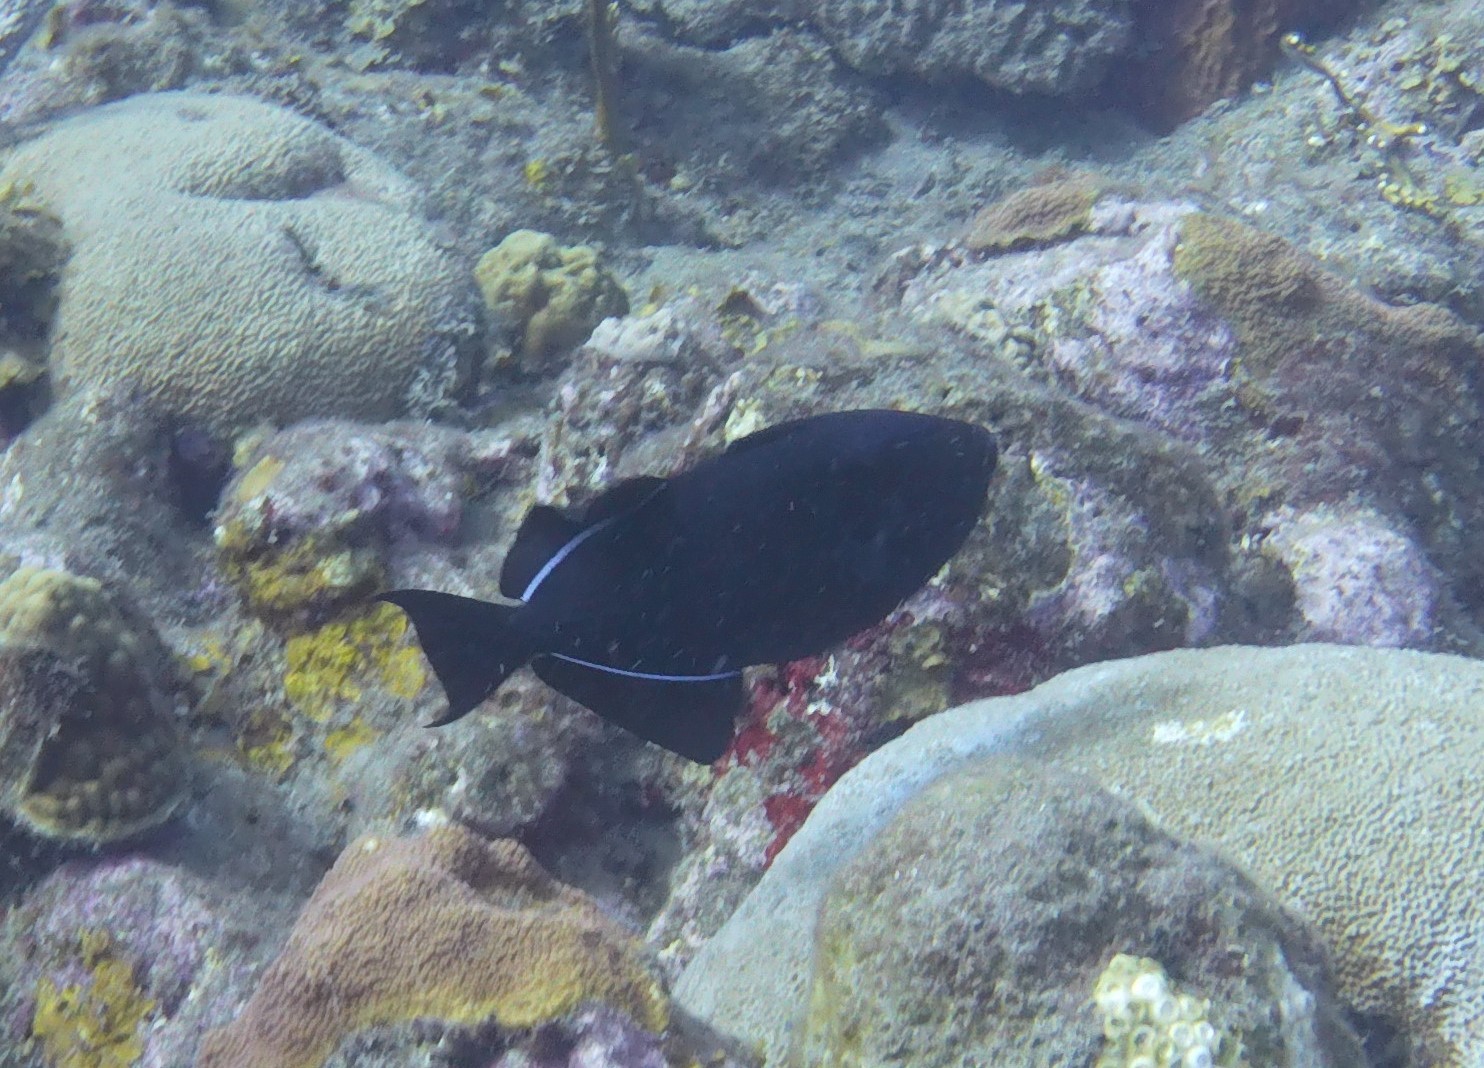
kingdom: Animalia
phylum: Chordata
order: Tetraodontiformes
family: Balistidae
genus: Melichthys
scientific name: Melichthys niger
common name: Black durgon
